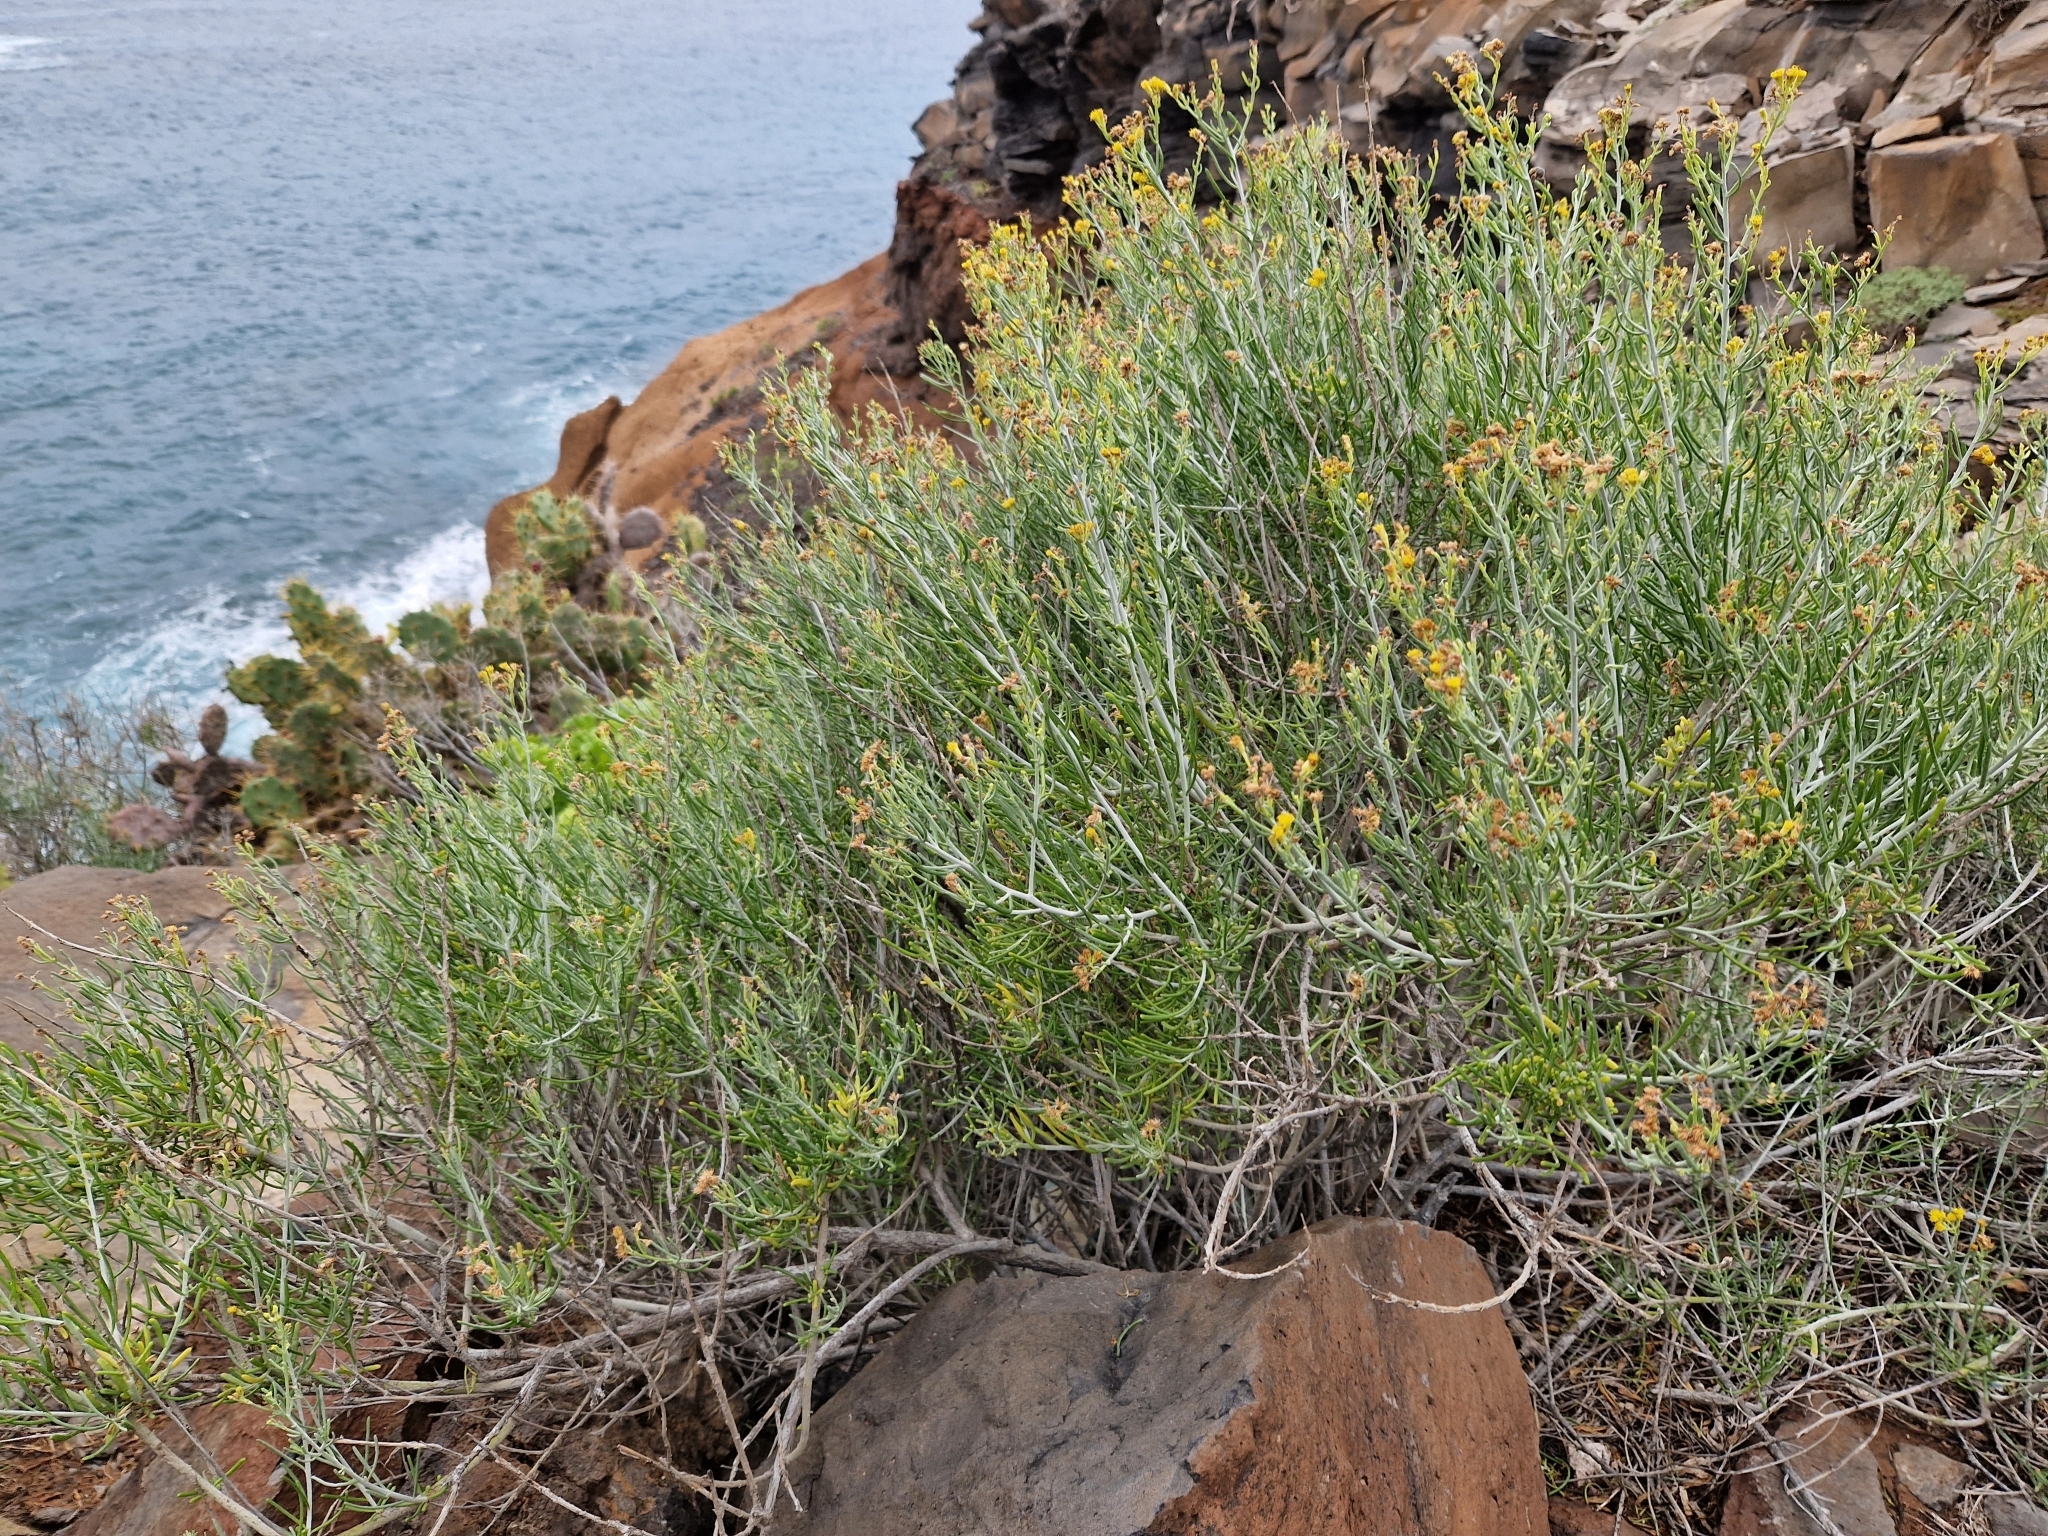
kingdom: Plantae
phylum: Tracheophyta
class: Magnoliopsida
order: Asterales
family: Asteraceae
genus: Schizogyne
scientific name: Schizogyne sericea
